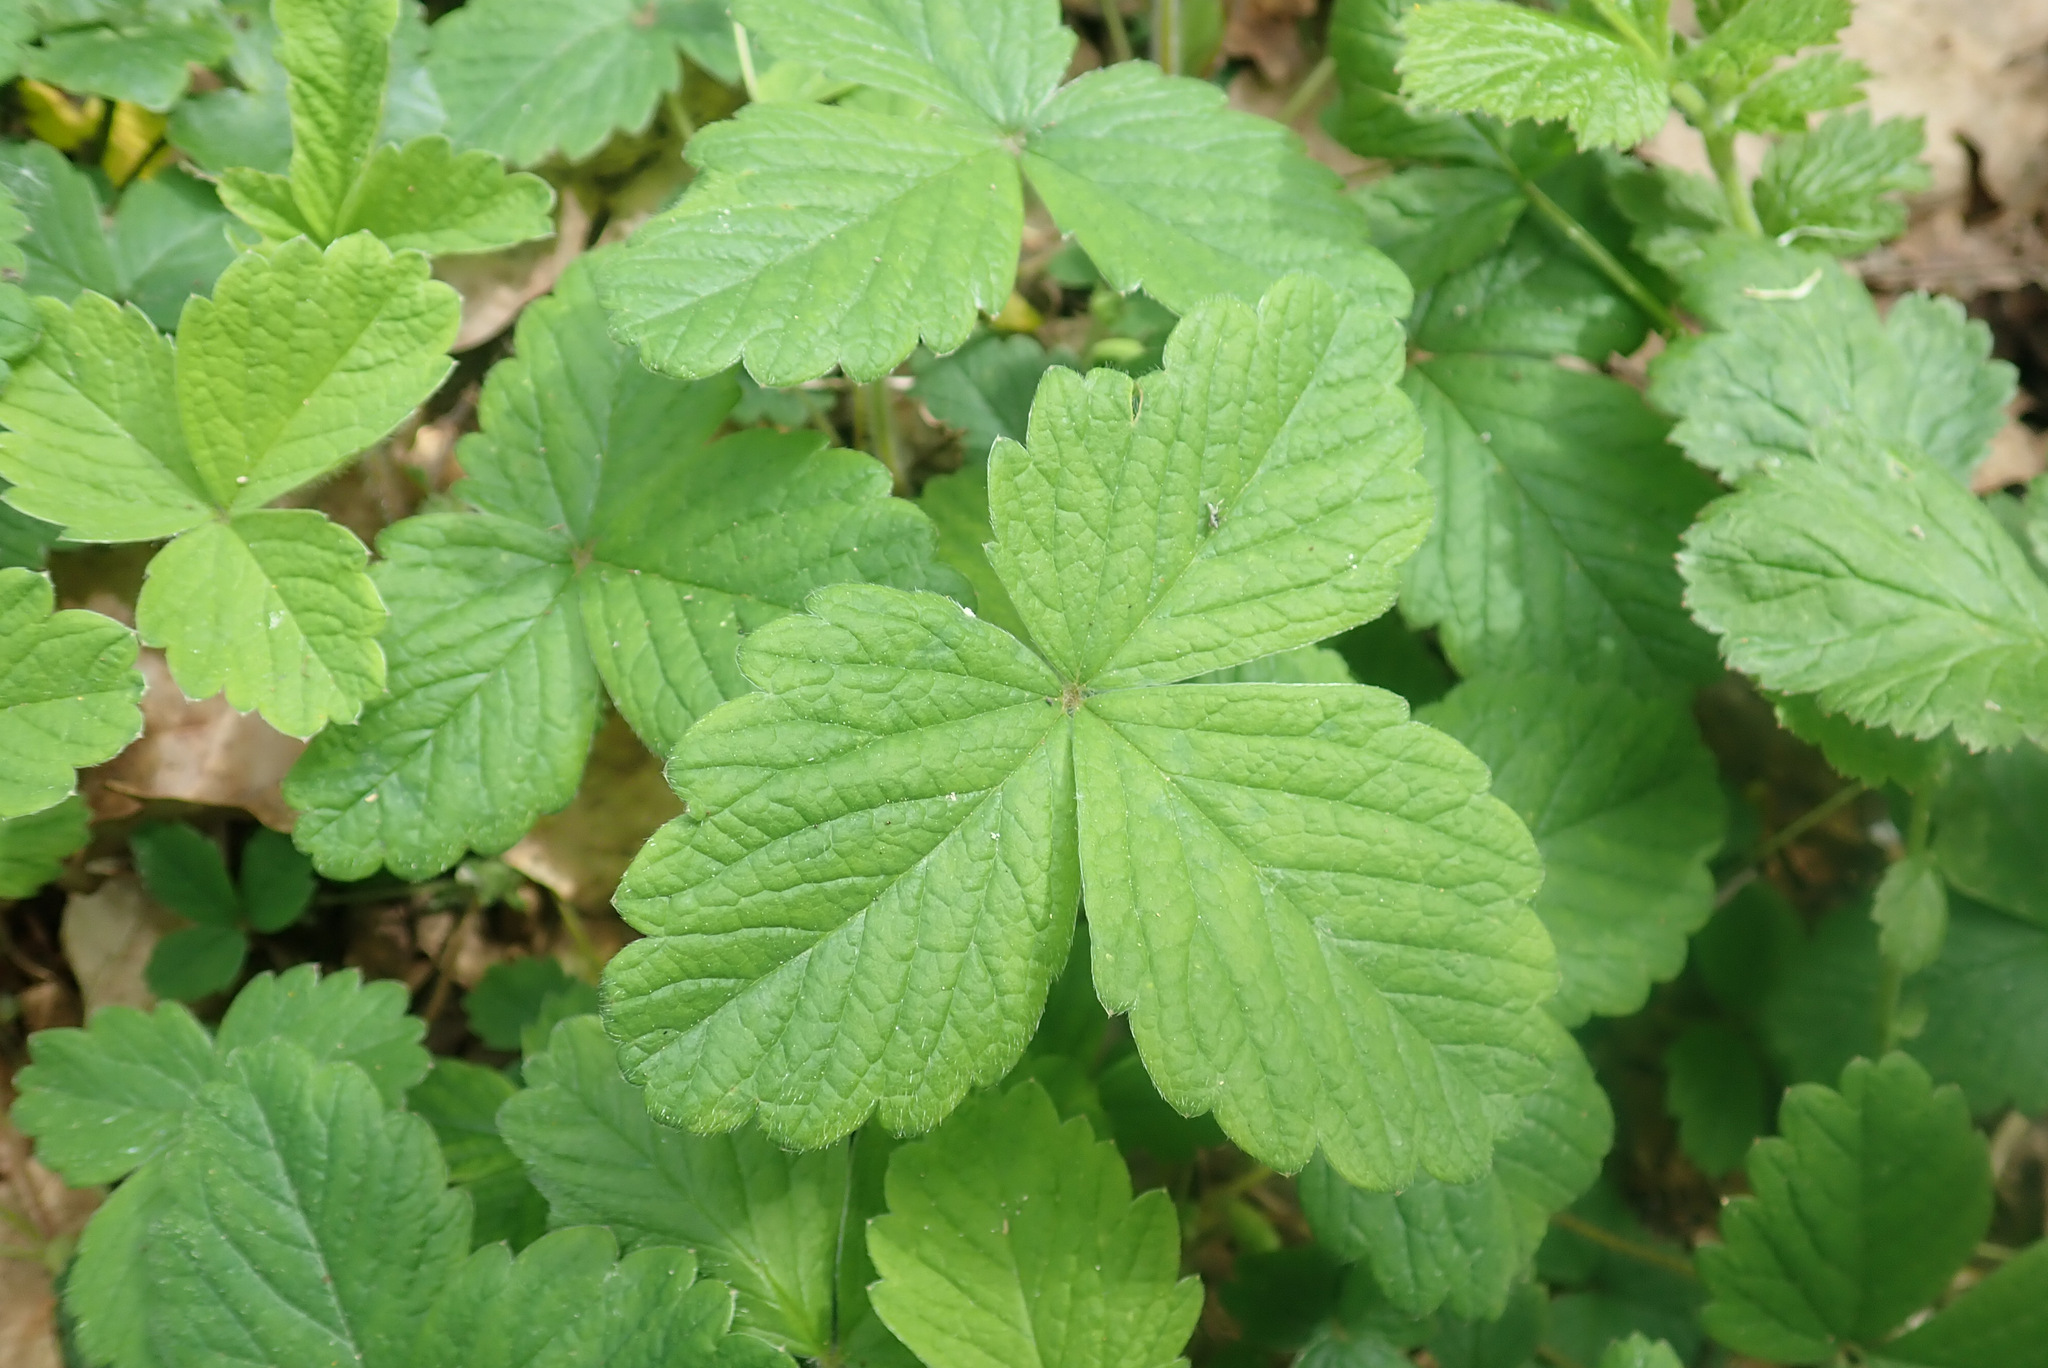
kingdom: Plantae
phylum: Tracheophyta
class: Magnoliopsida
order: Rosales
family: Rosaceae
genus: Potentilla
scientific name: Potentilla sterilis
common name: Barren strawberry
